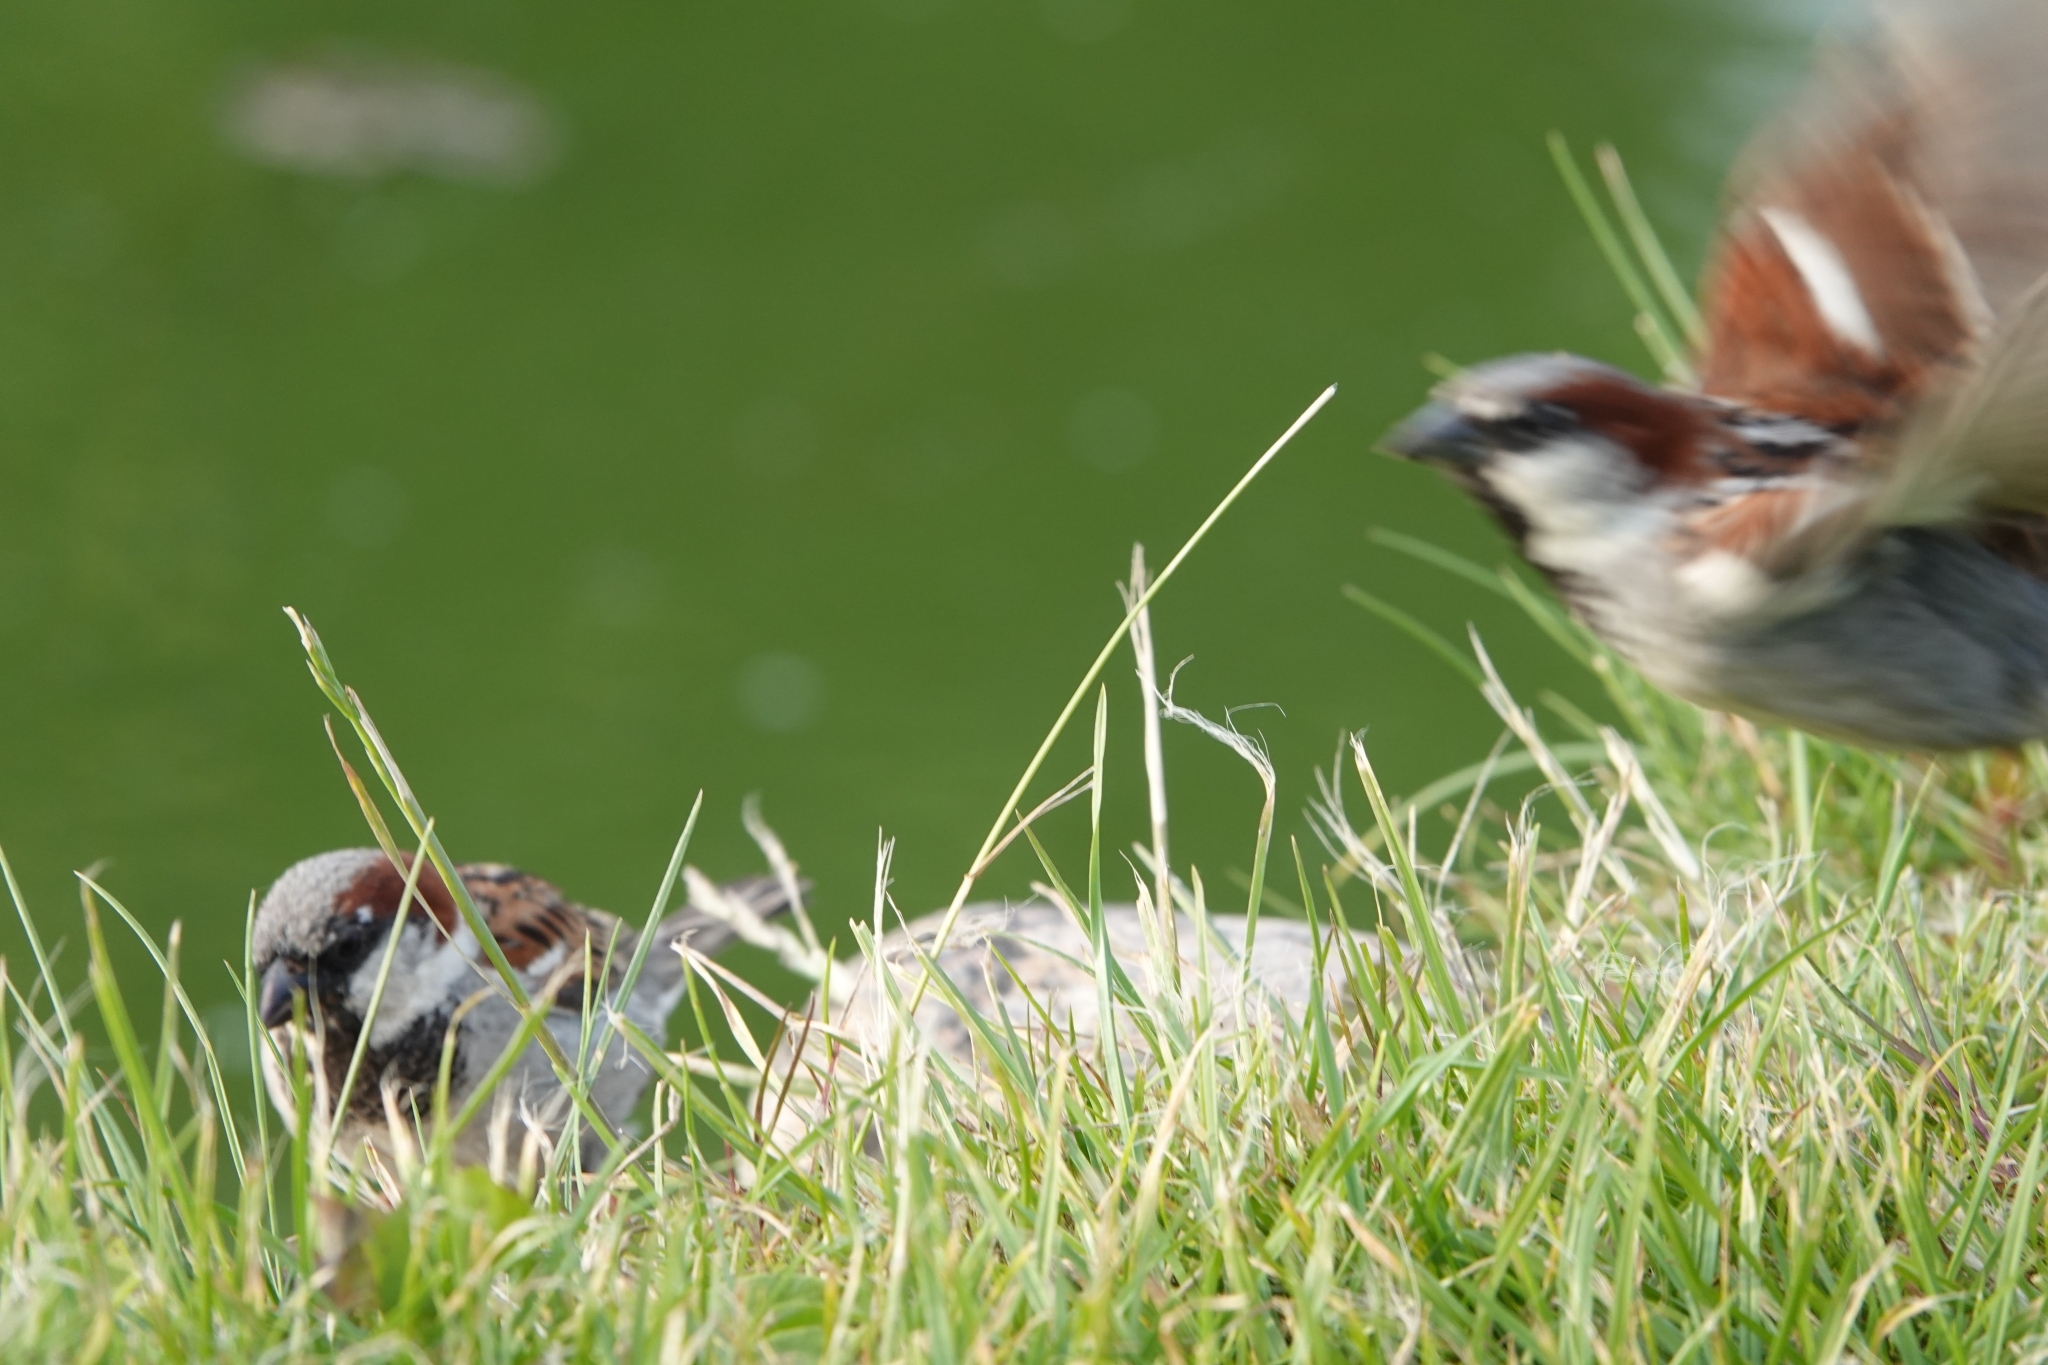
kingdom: Animalia
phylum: Chordata
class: Aves
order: Passeriformes
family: Passeridae
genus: Passer
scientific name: Passer domesticus
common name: House sparrow
